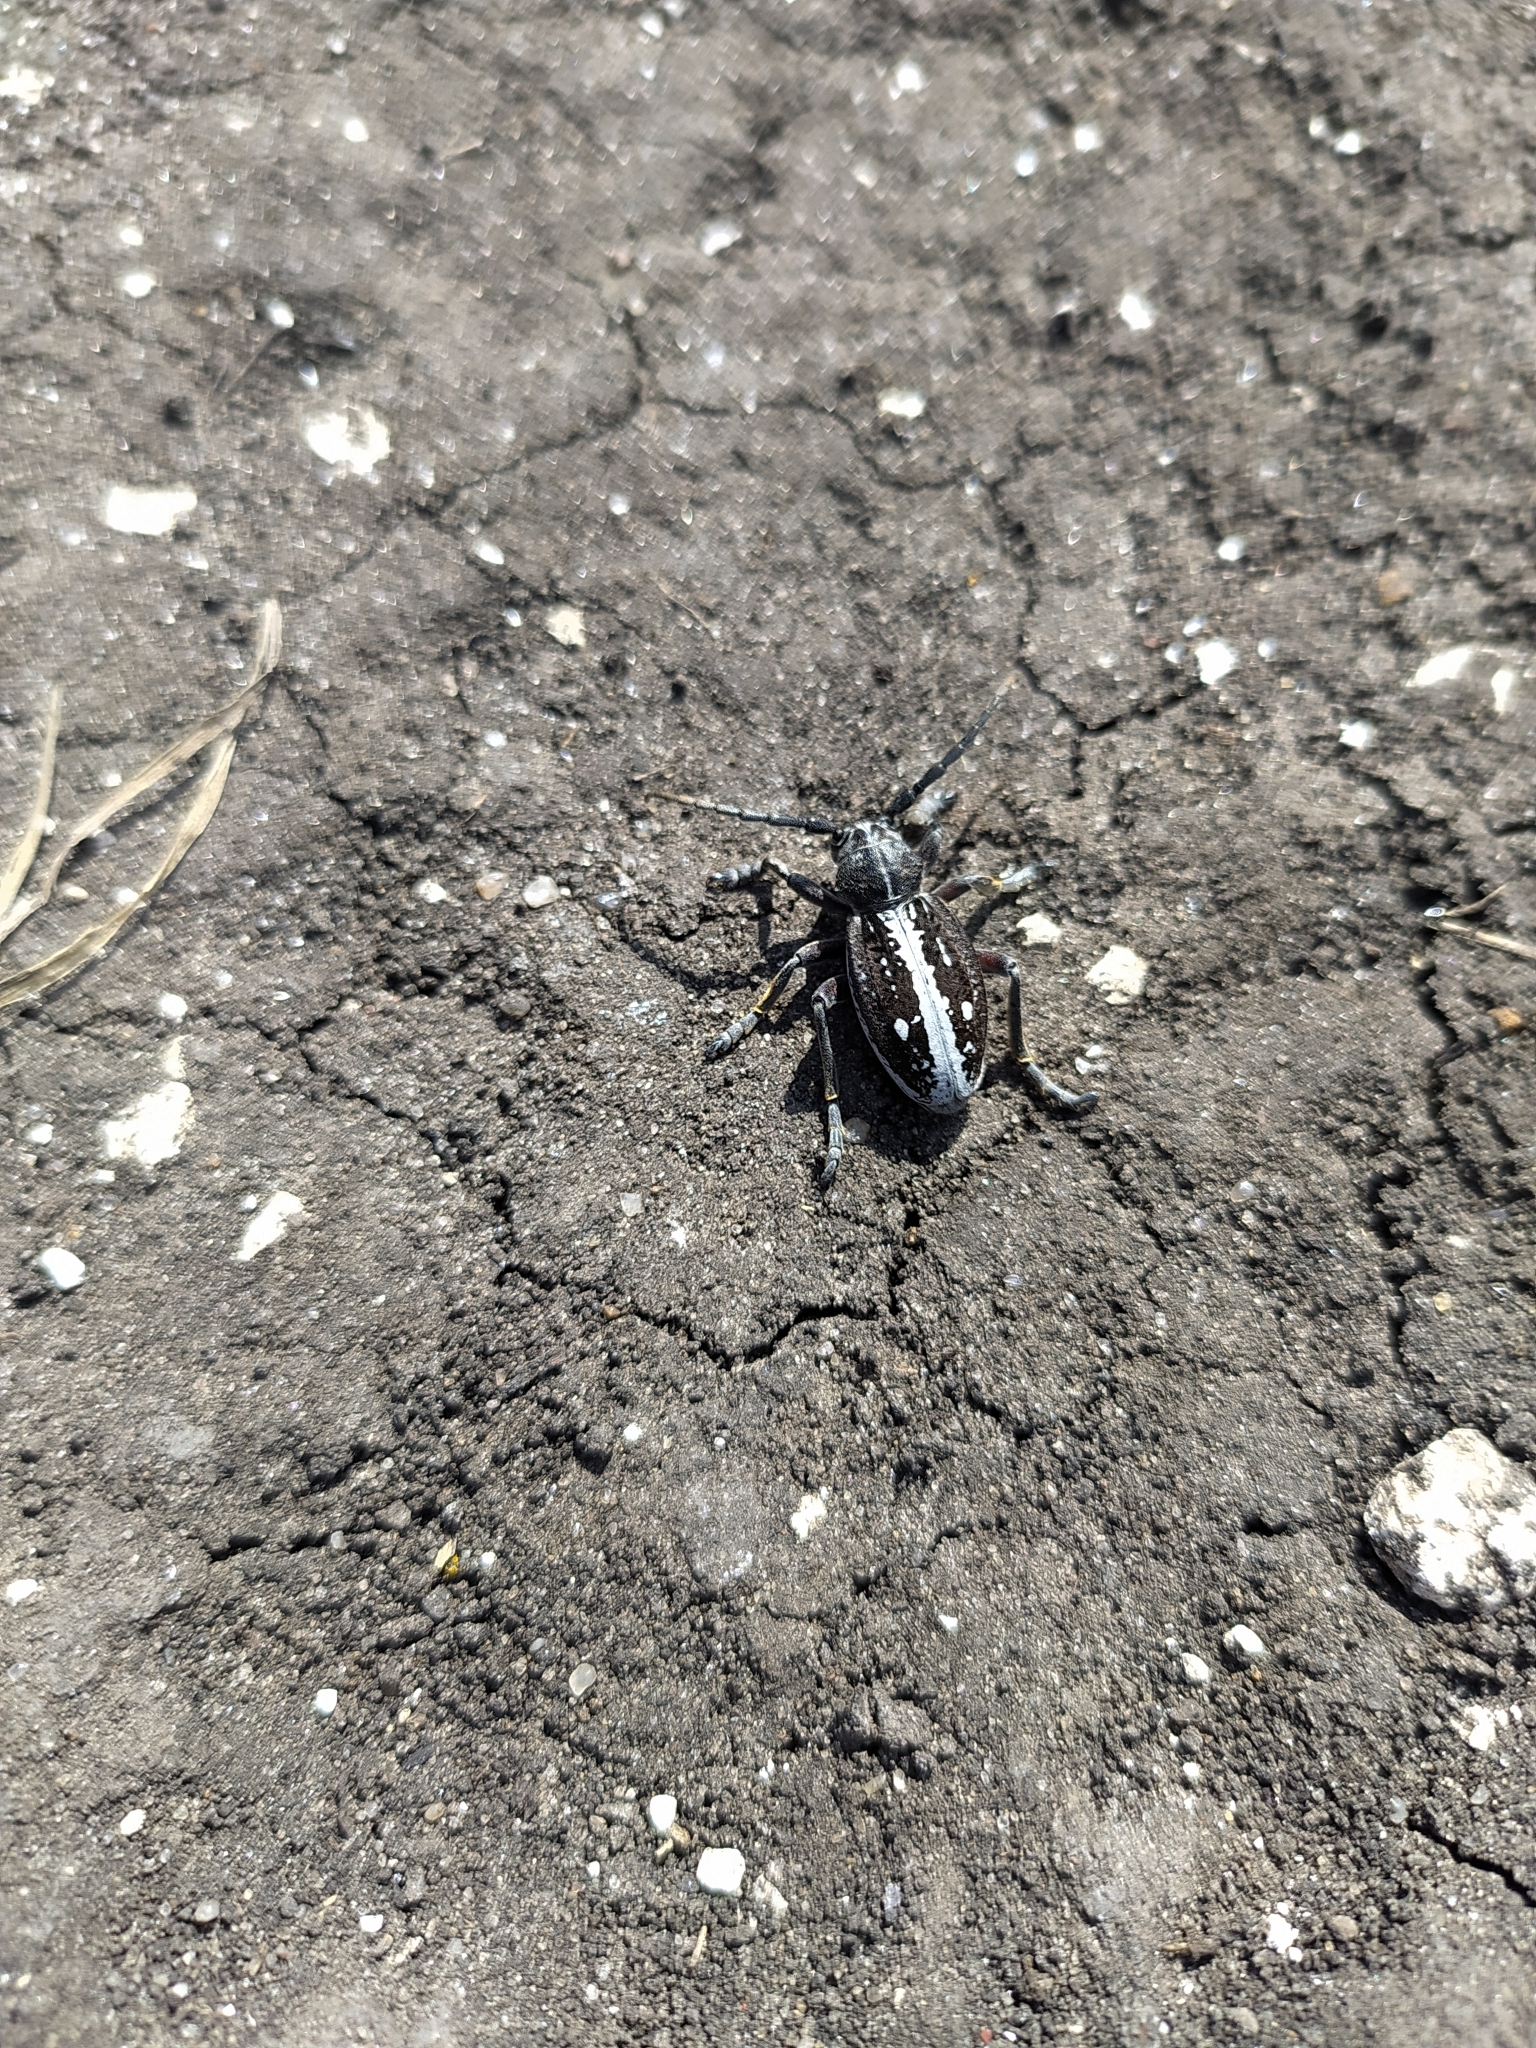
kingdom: Animalia
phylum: Arthropoda
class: Insecta
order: Coleoptera
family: Cerambycidae
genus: Dorcadion
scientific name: Dorcadion equestre
